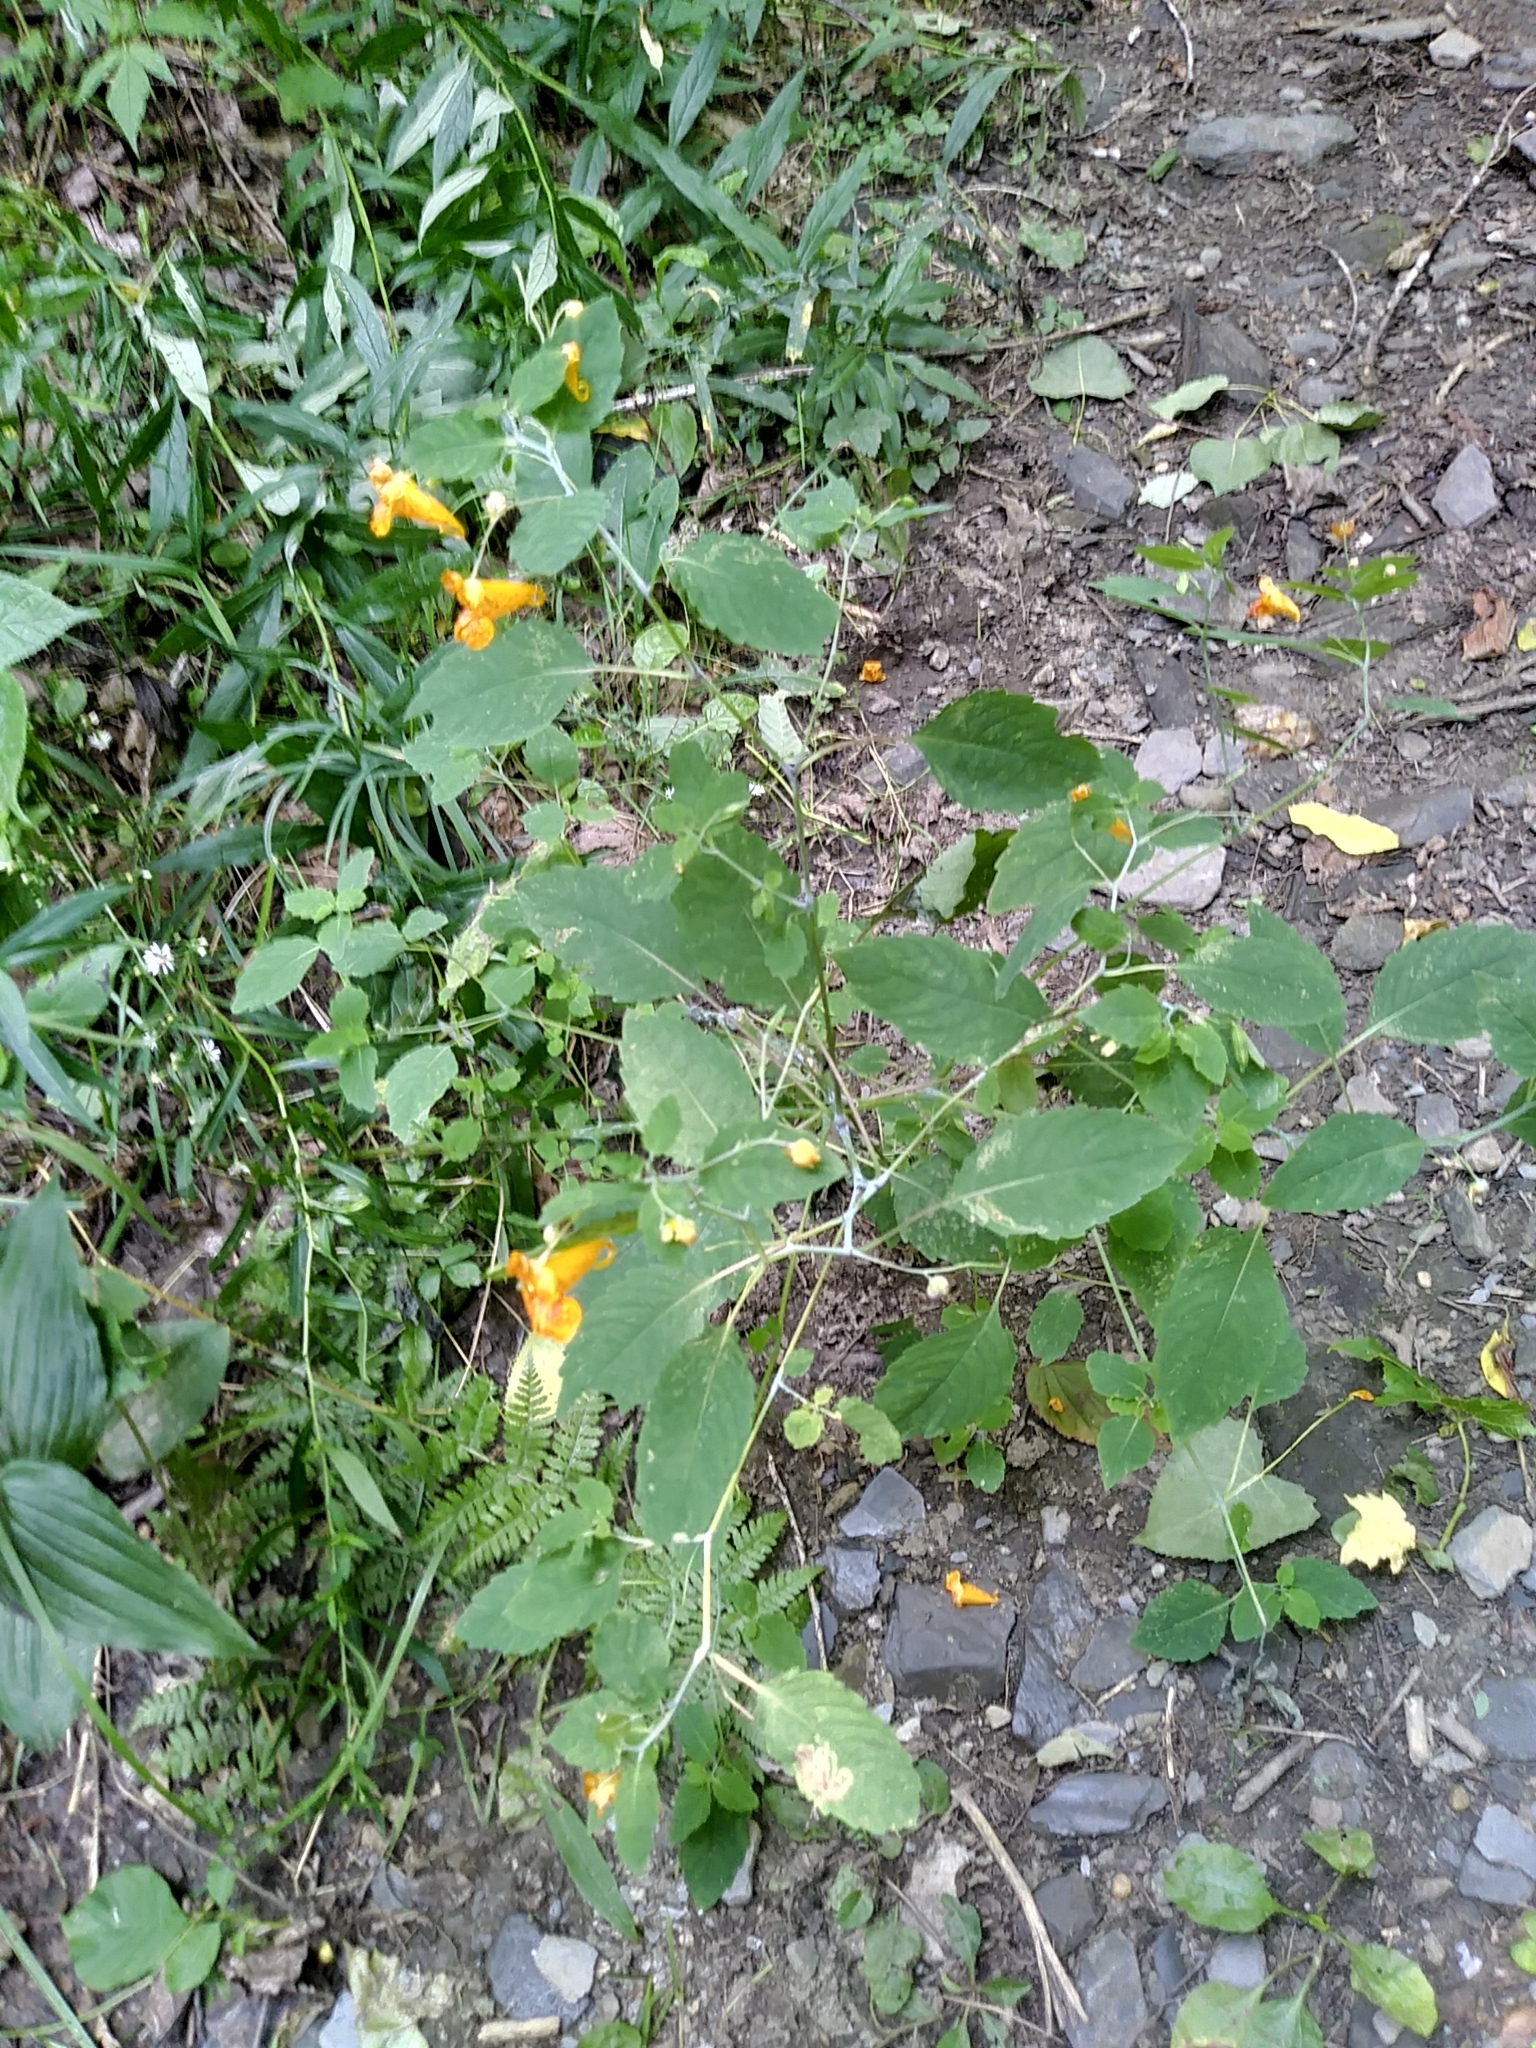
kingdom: Plantae
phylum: Tracheophyta
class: Magnoliopsida
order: Ericales
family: Balsaminaceae
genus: Impatiens
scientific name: Impatiens capensis
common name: Orange balsam
